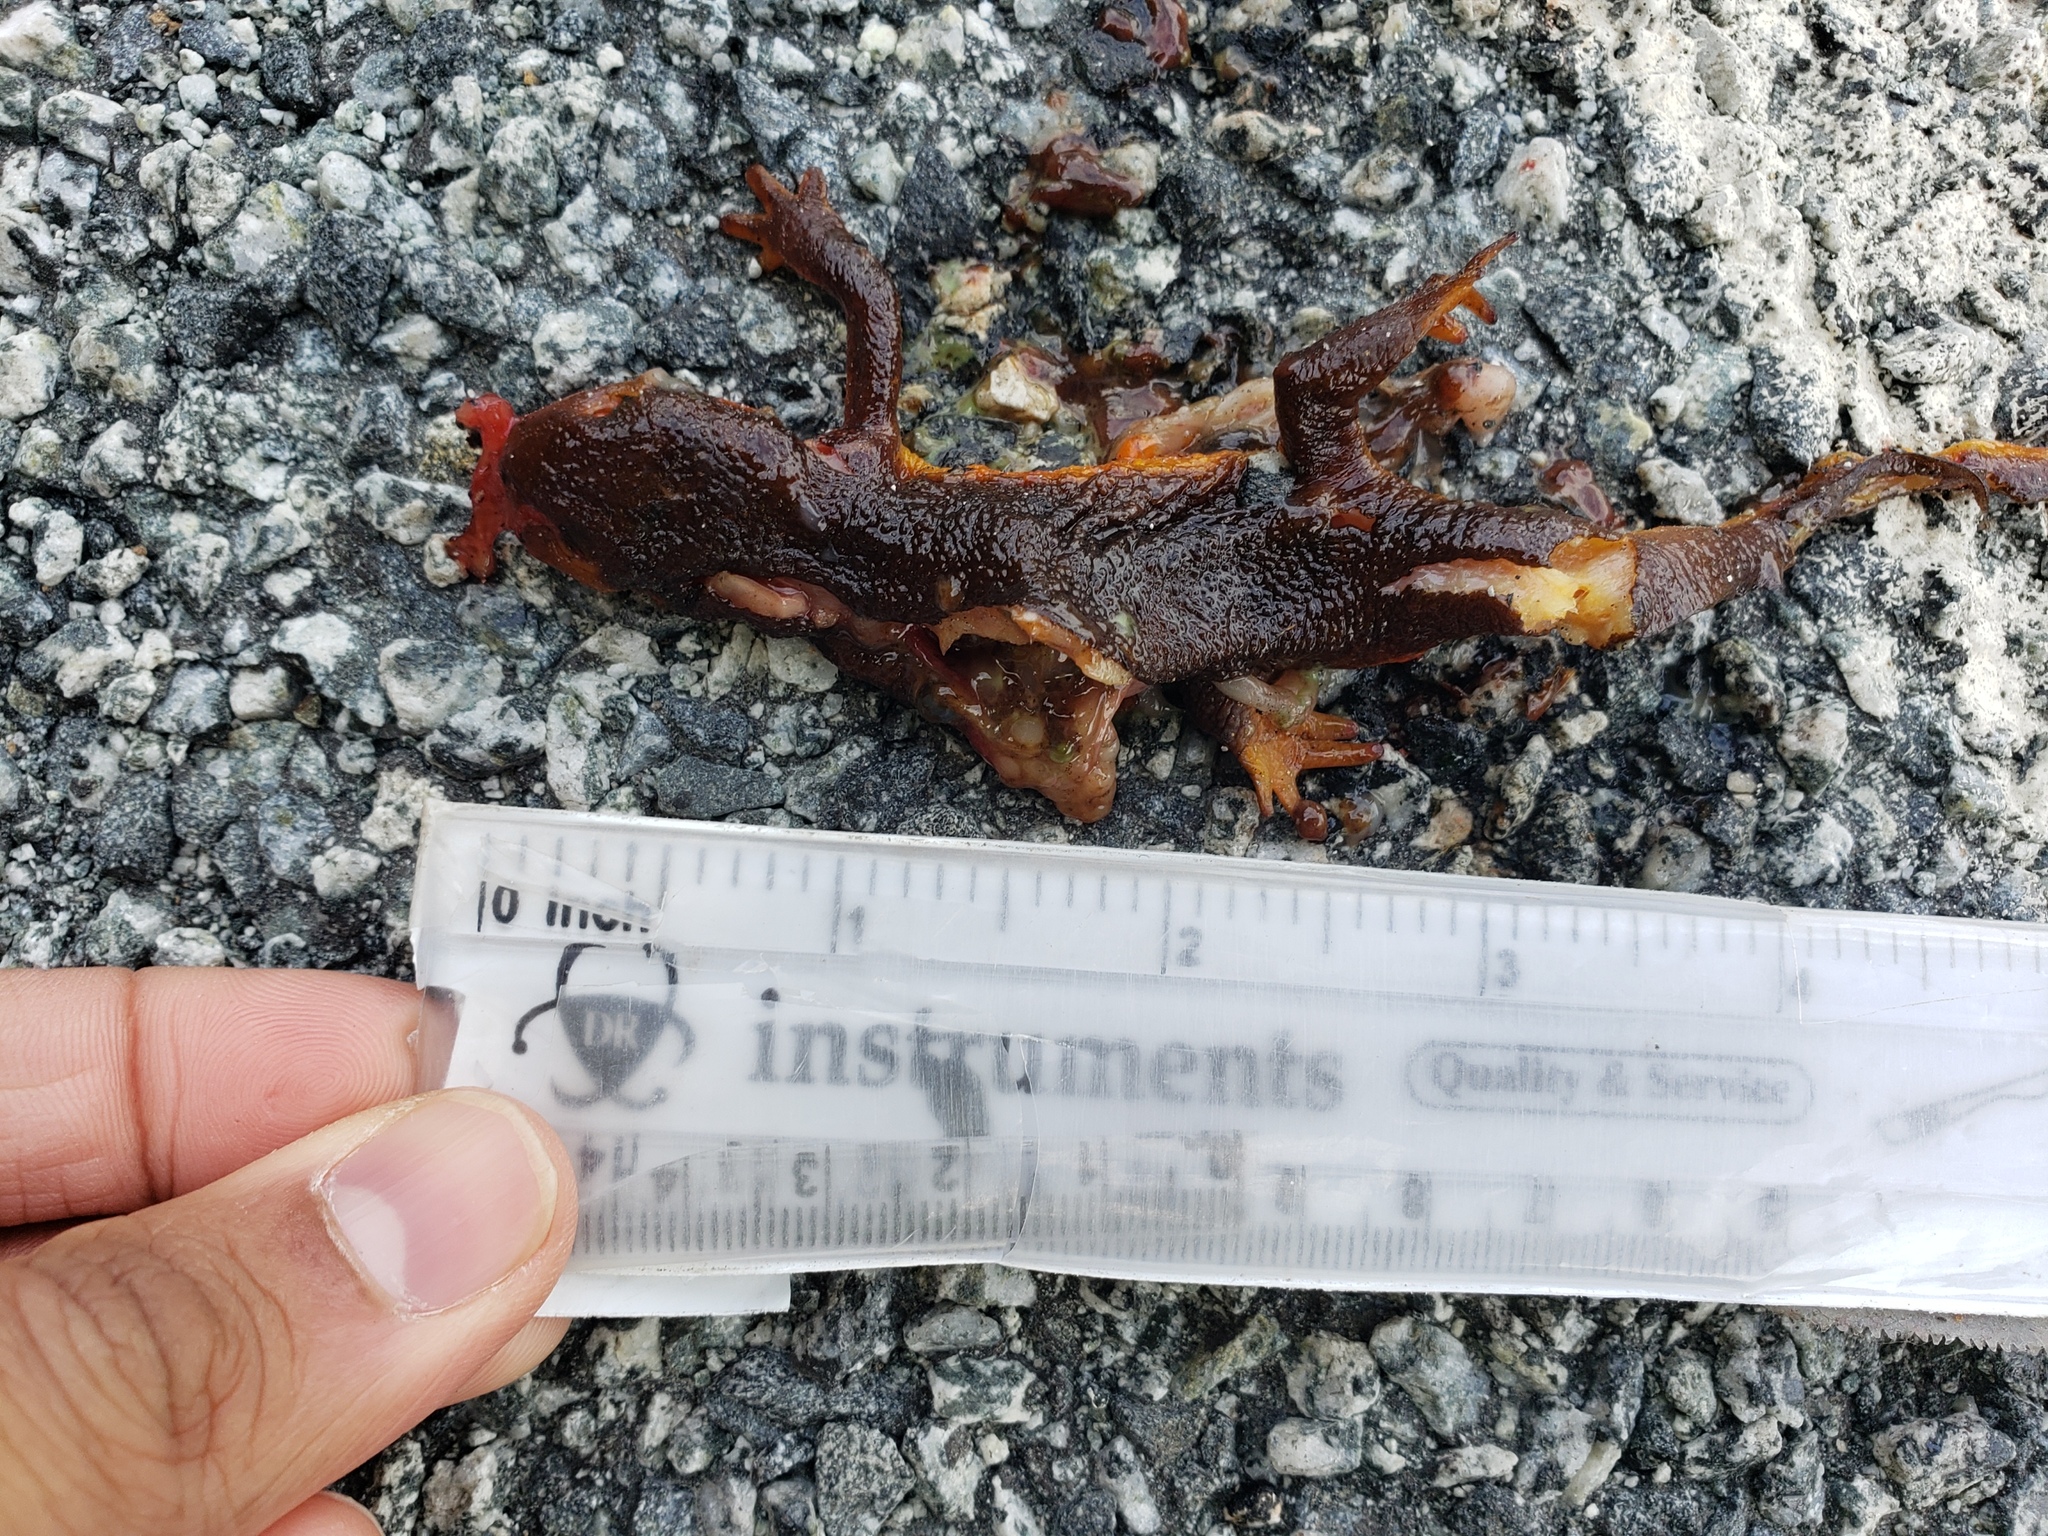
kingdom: Animalia
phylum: Chordata
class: Amphibia
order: Caudata
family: Salamandridae
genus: Taricha
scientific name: Taricha
